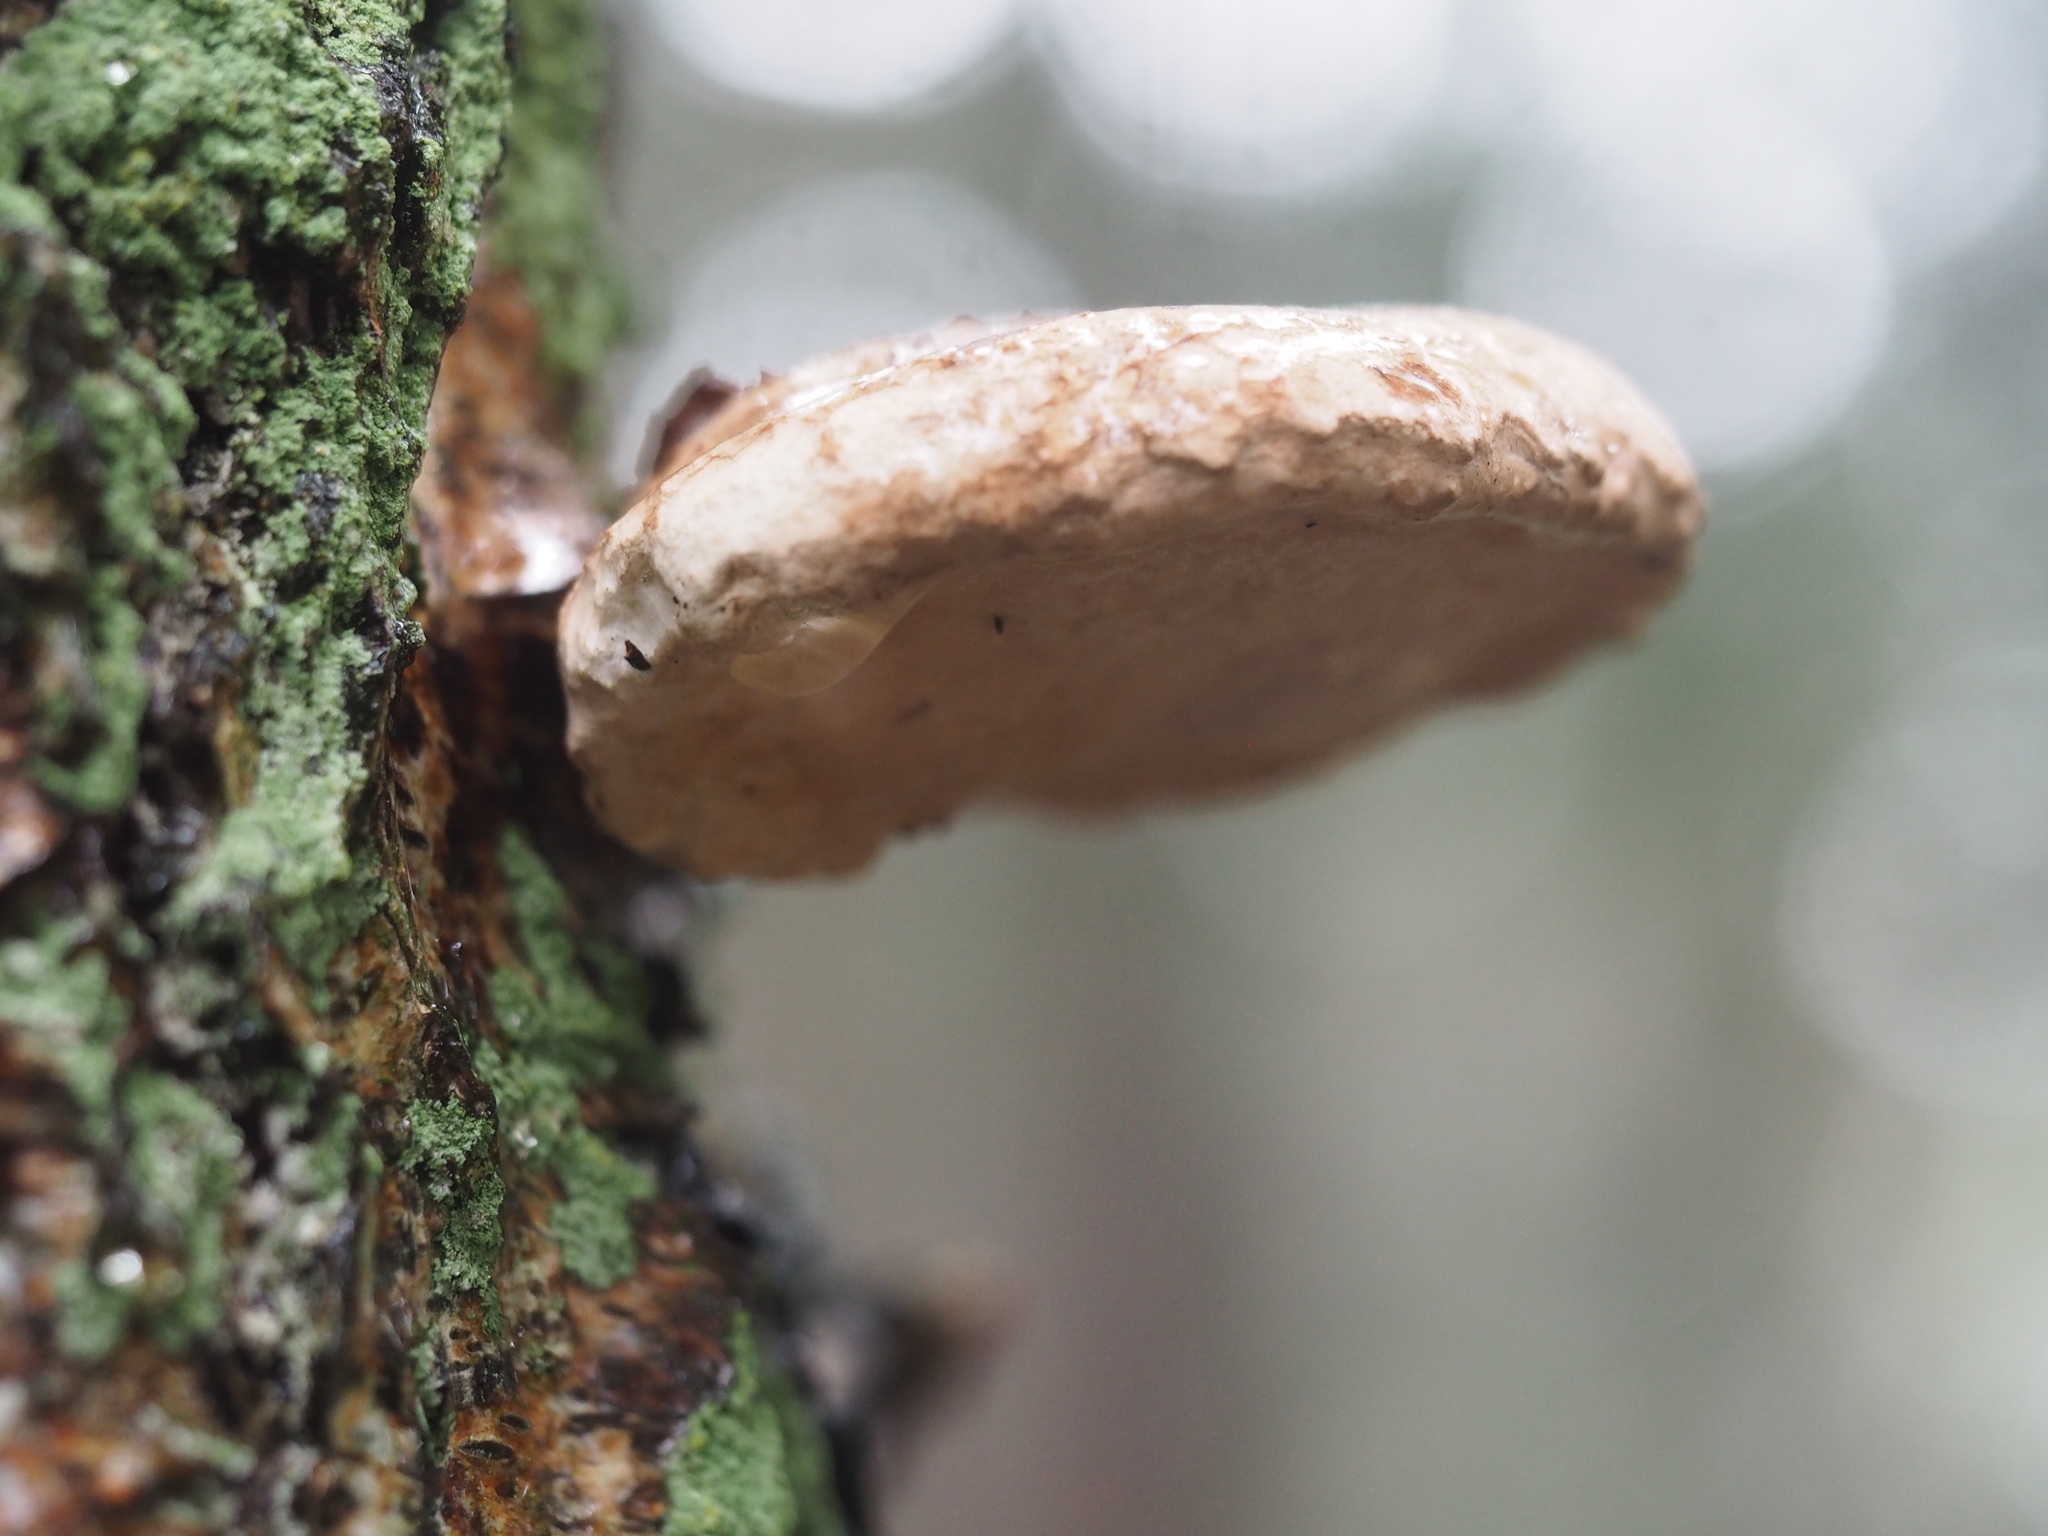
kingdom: Fungi
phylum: Basidiomycota
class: Agaricomycetes
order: Polyporales
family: Fomitopsidaceae
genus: Fomitopsis
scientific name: Fomitopsis betulina
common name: Birch polypore
